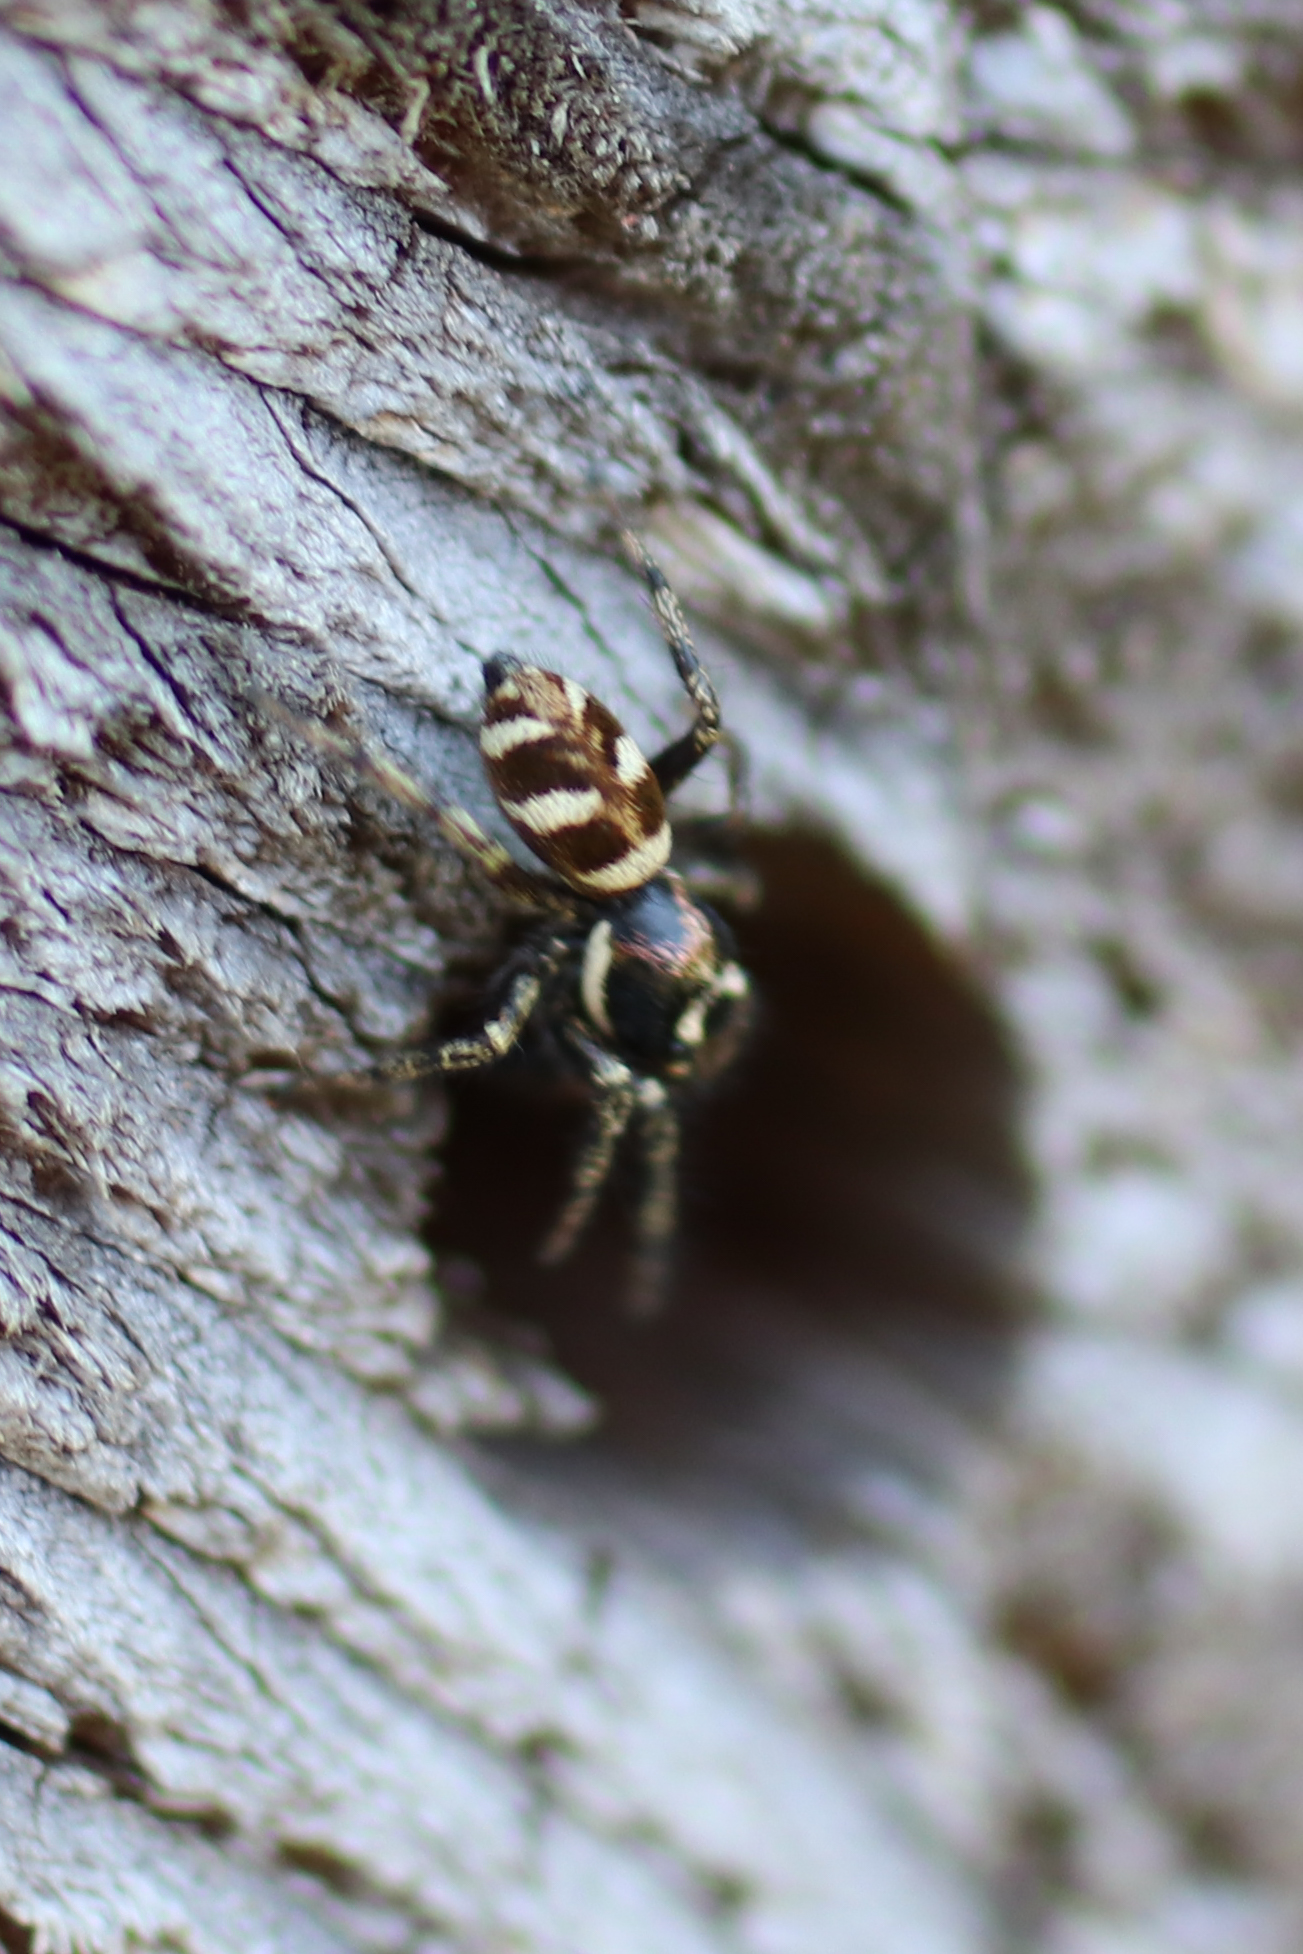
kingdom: Animalia
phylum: Arthropoda
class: Arachnida
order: Araneae
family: Salticidae
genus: Salticus
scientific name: Salticus scenicus
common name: Zebra jumper
